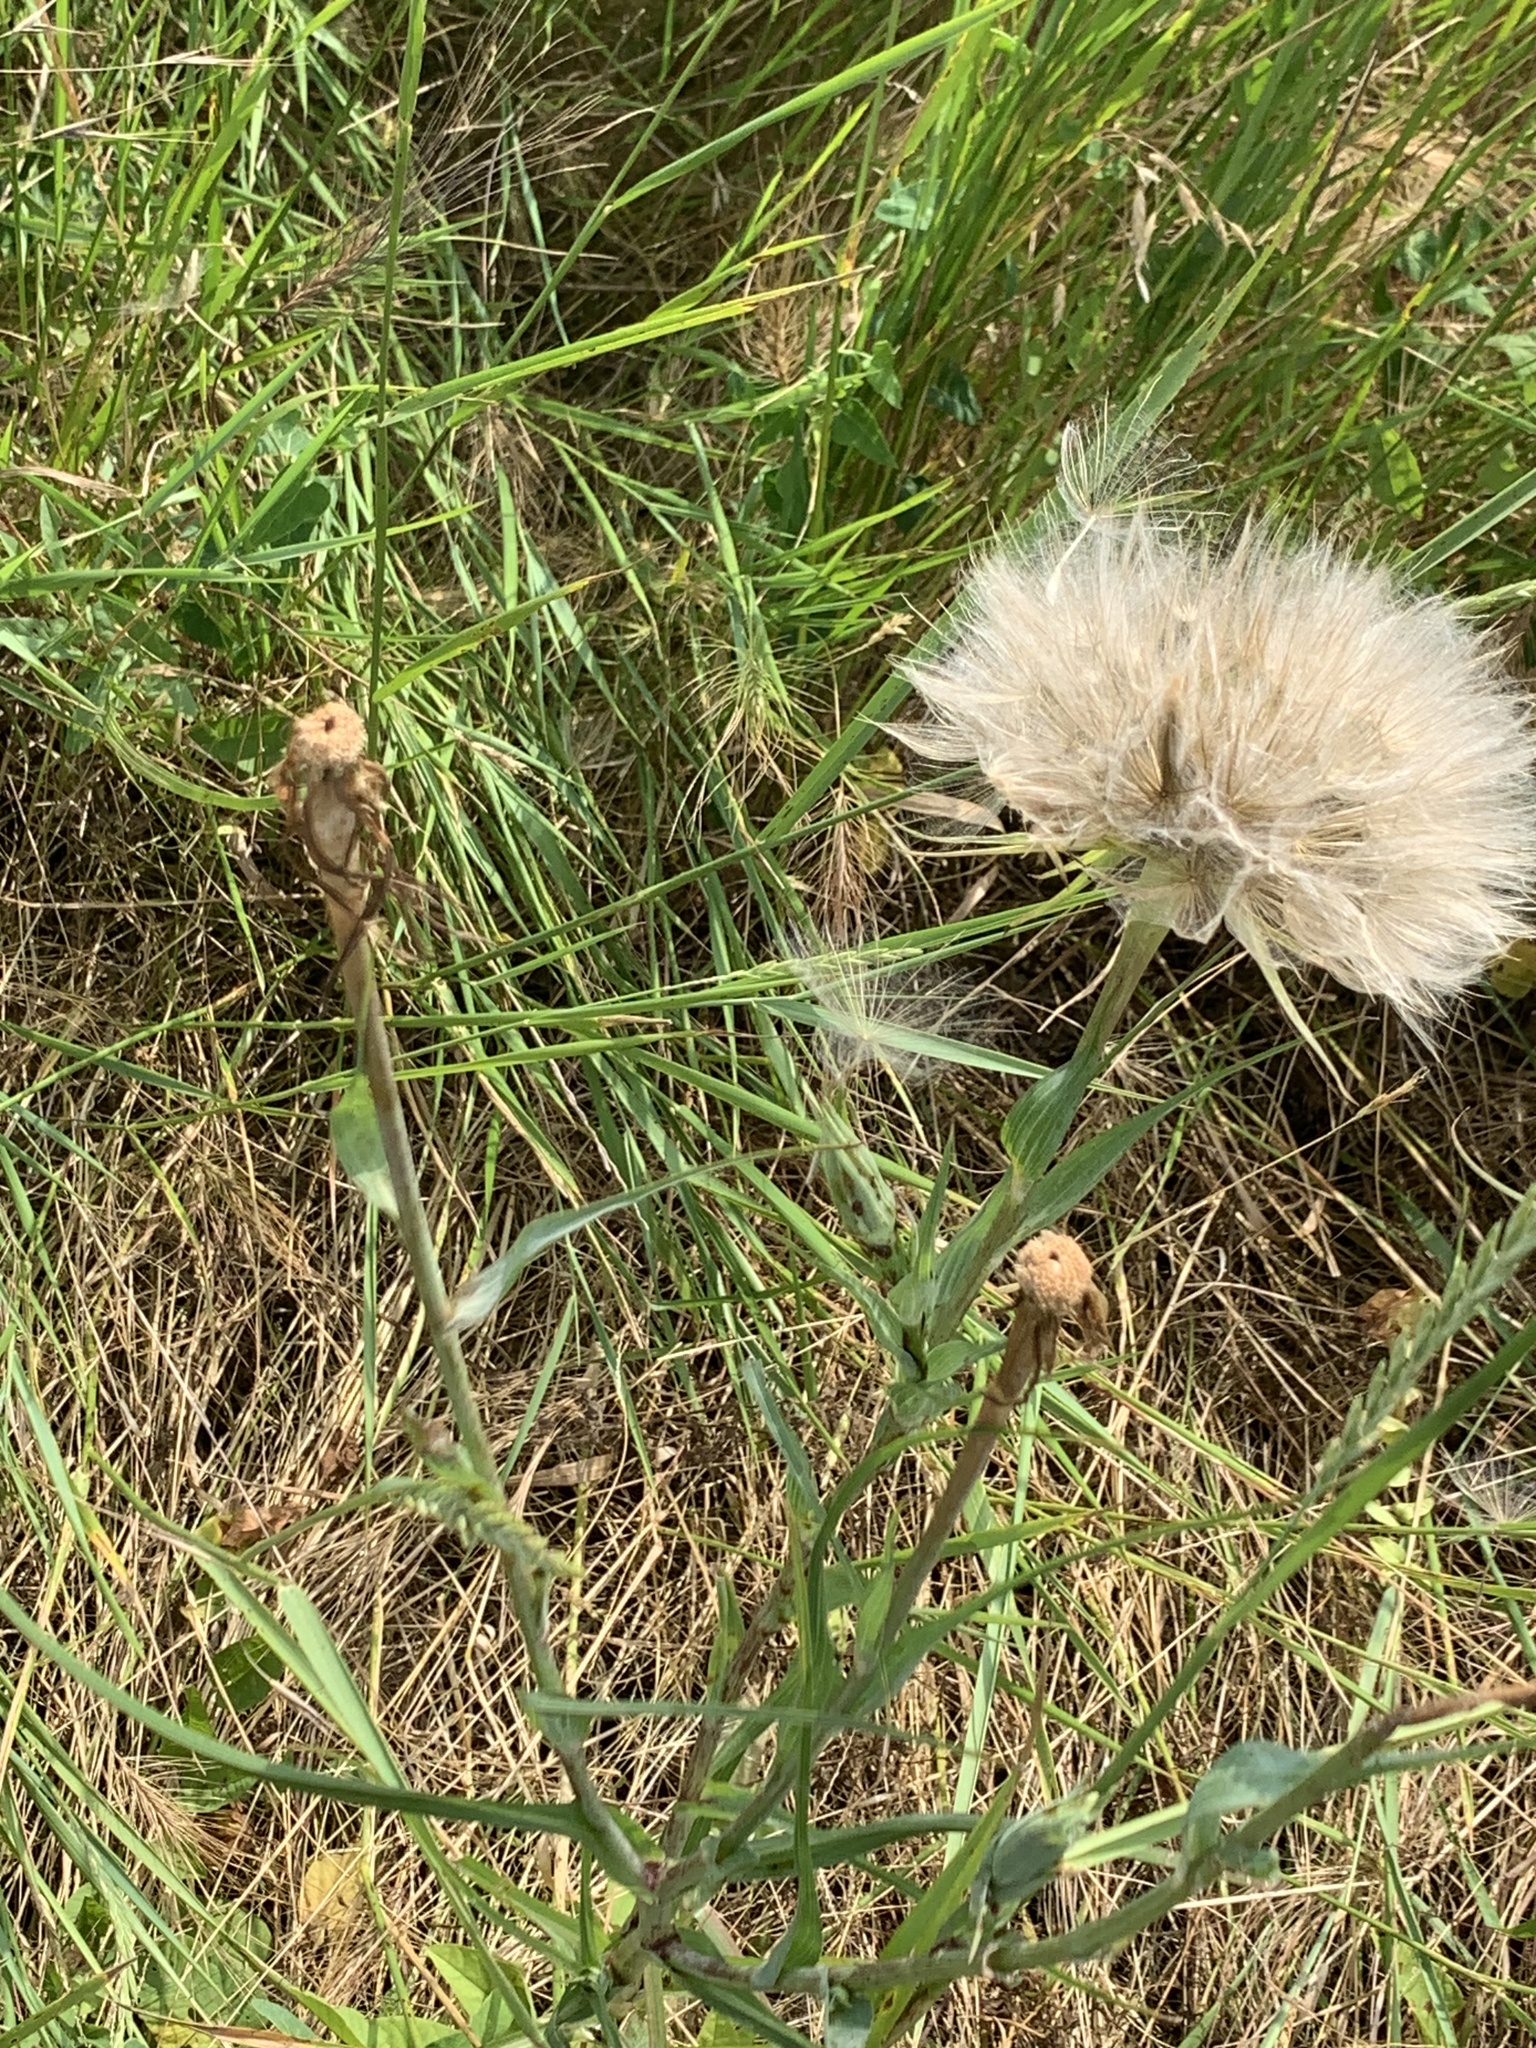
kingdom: Plantae
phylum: Tracheophyta
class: Magnoliopsida
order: Asterales
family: Asteraceae
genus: Tragopogon
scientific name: Tragopogon dubius
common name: Yellow salsify
